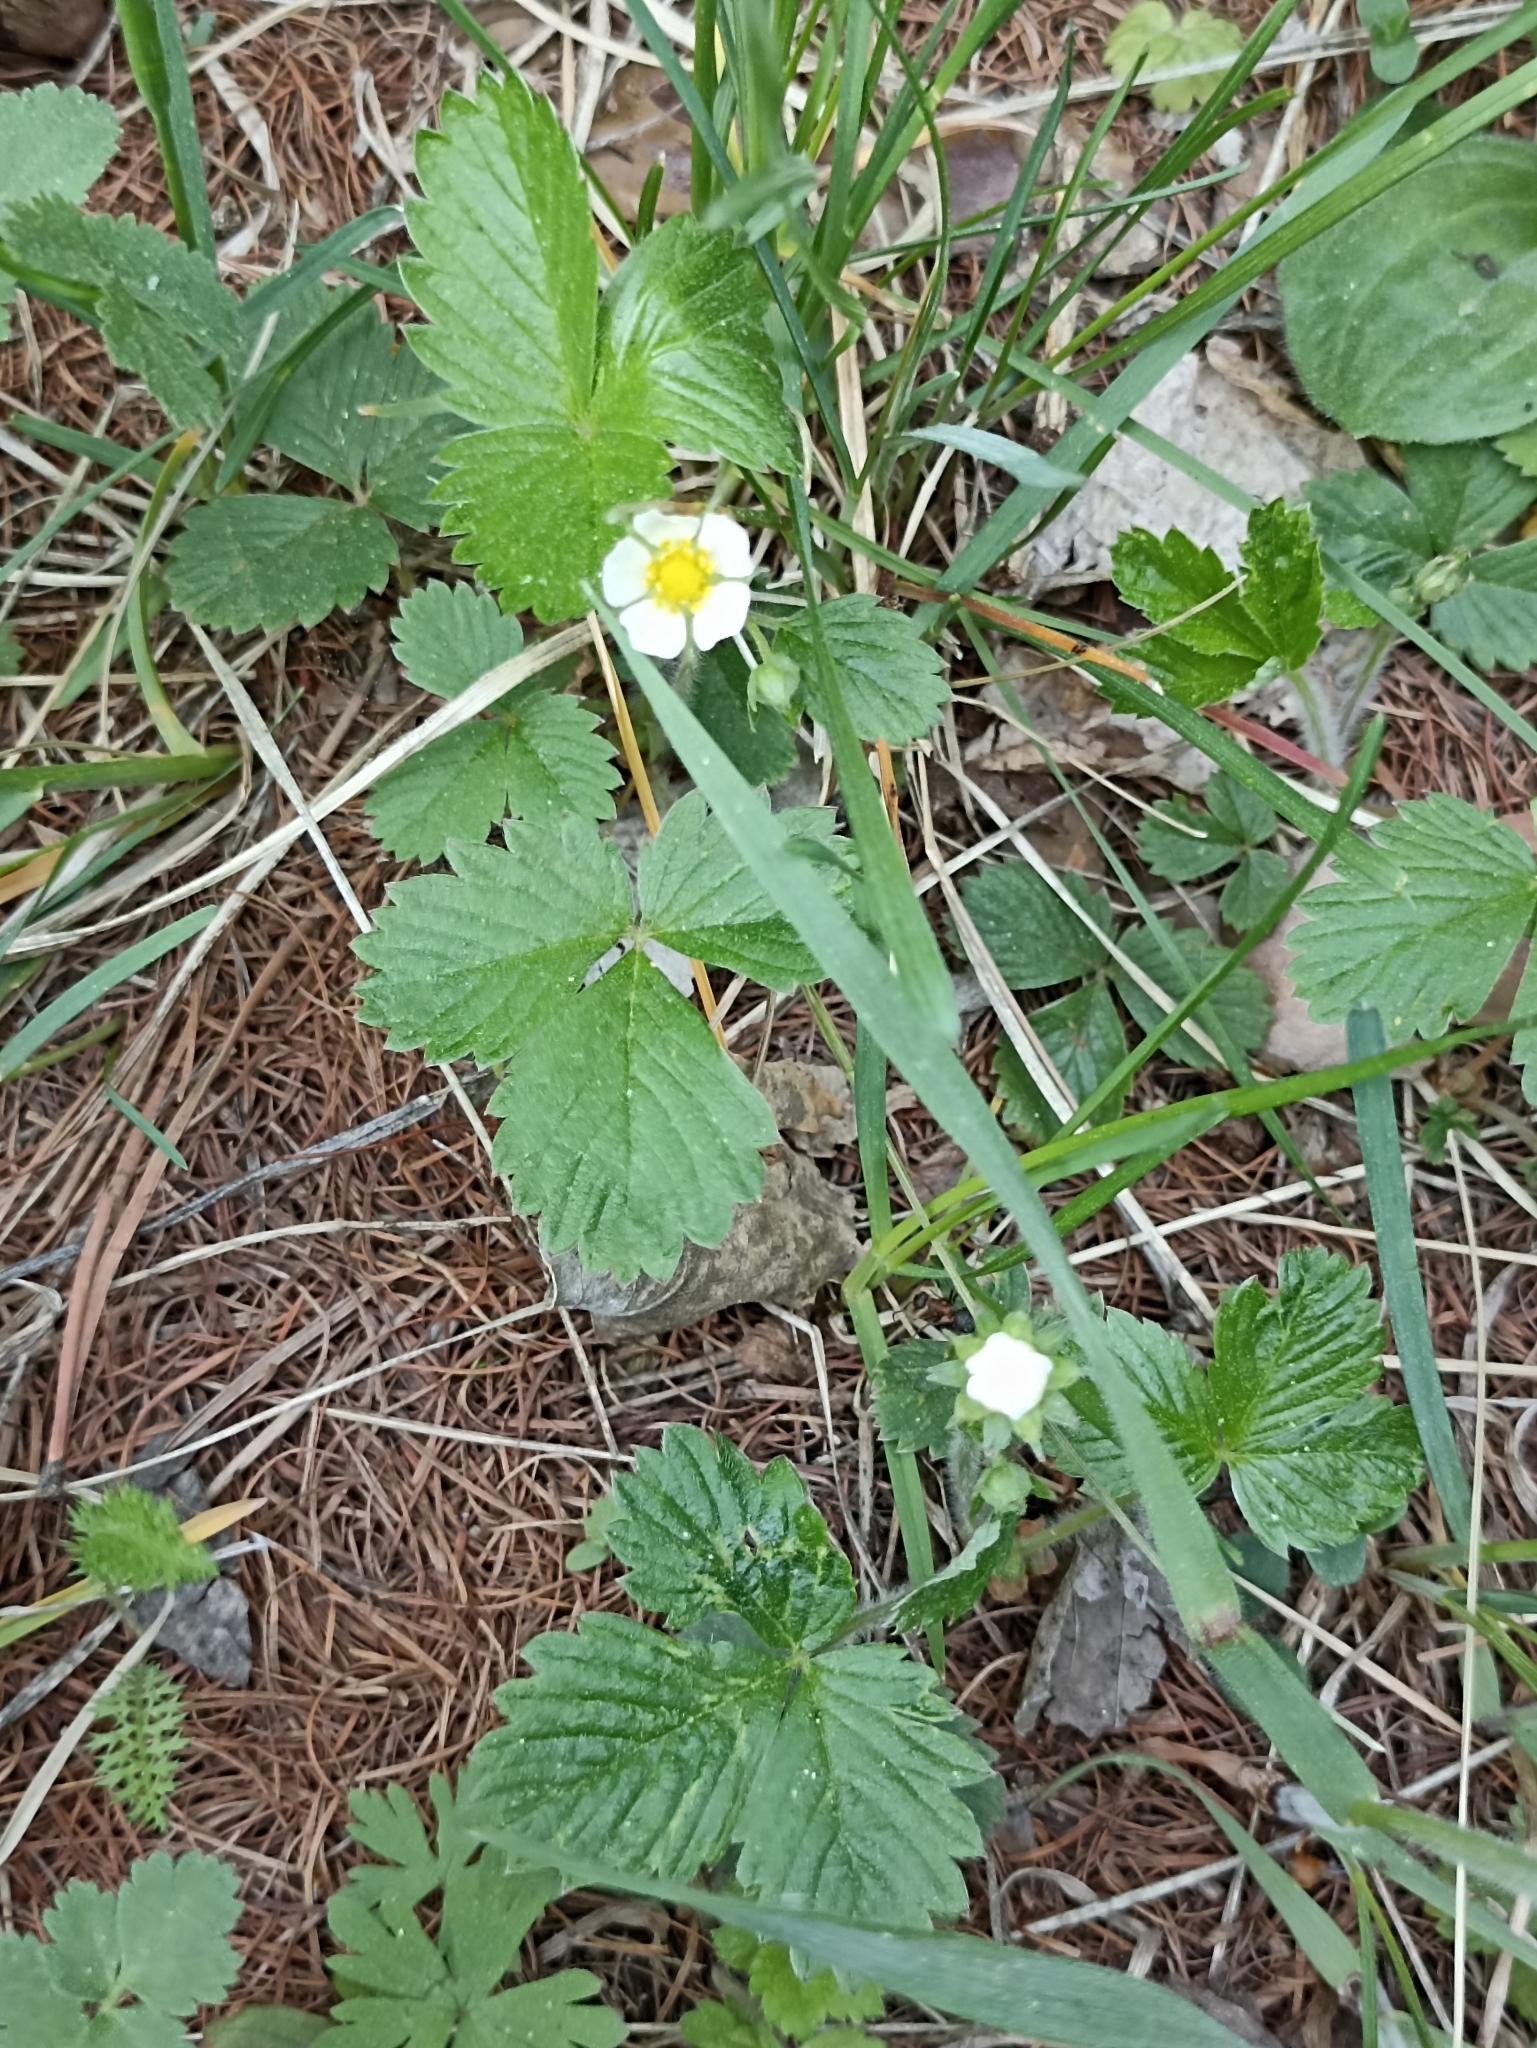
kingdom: Plantae
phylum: Tracheophyta
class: Magnoliopsida
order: Rosales
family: Rosaceae
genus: Fragaria
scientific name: Fragaria vesca
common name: Wild strawberry
